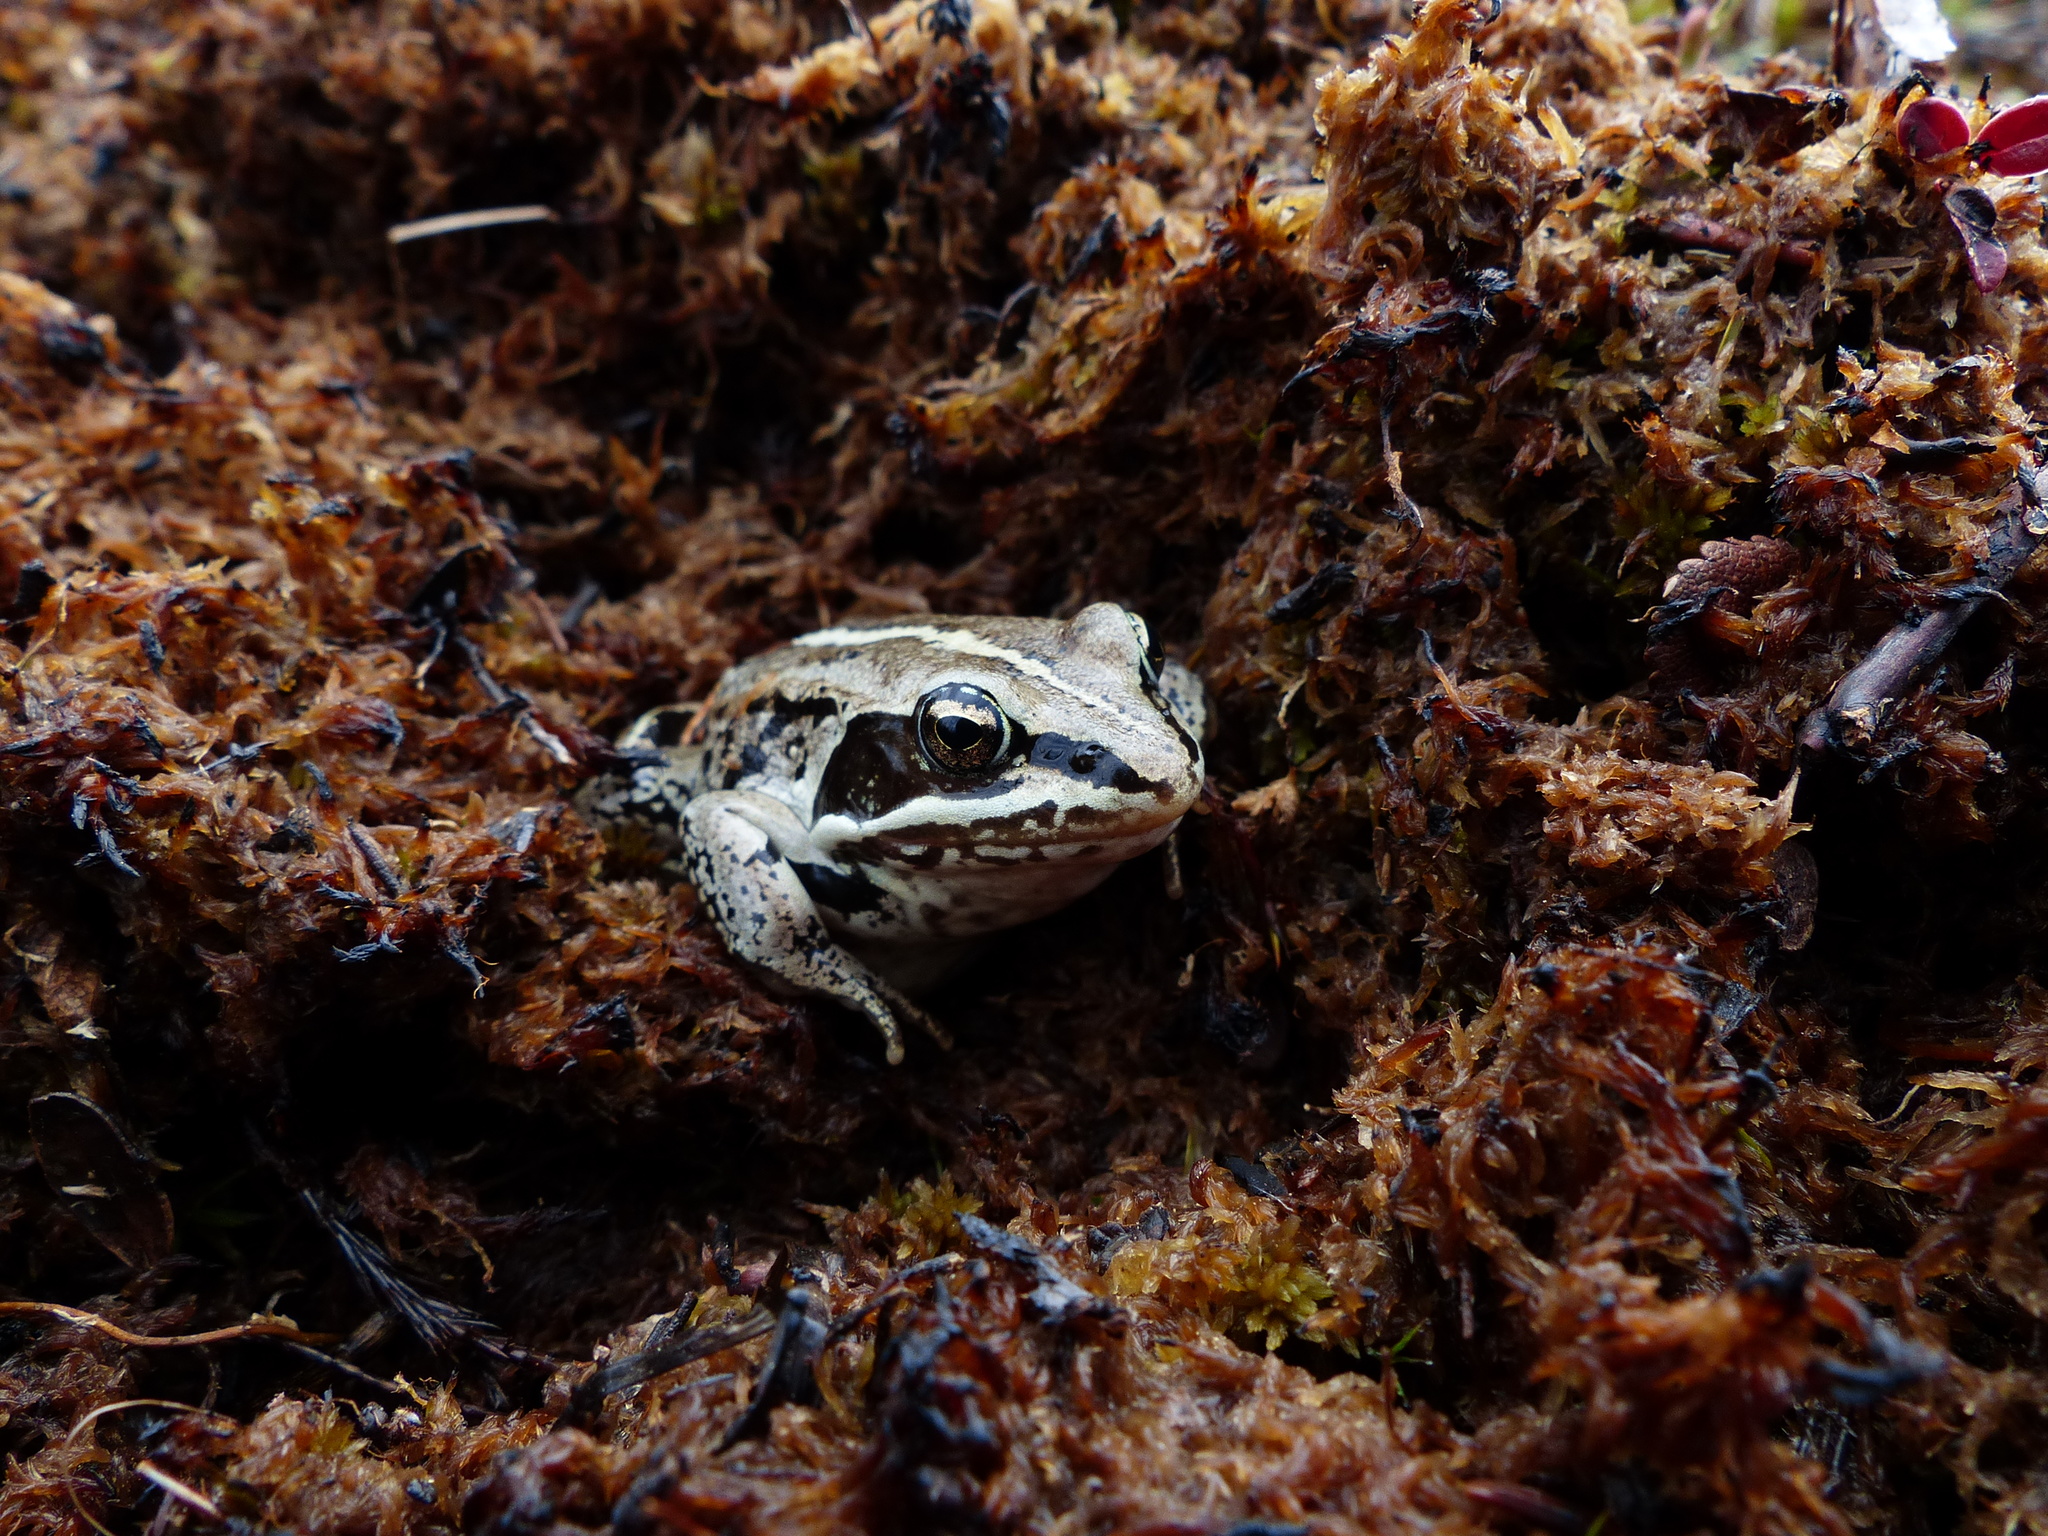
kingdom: Animalia
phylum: Chordata
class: Amphibia
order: Anura
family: Ranidae
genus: Lithobates
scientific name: Lithobates sylvaticus
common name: Wood frog
